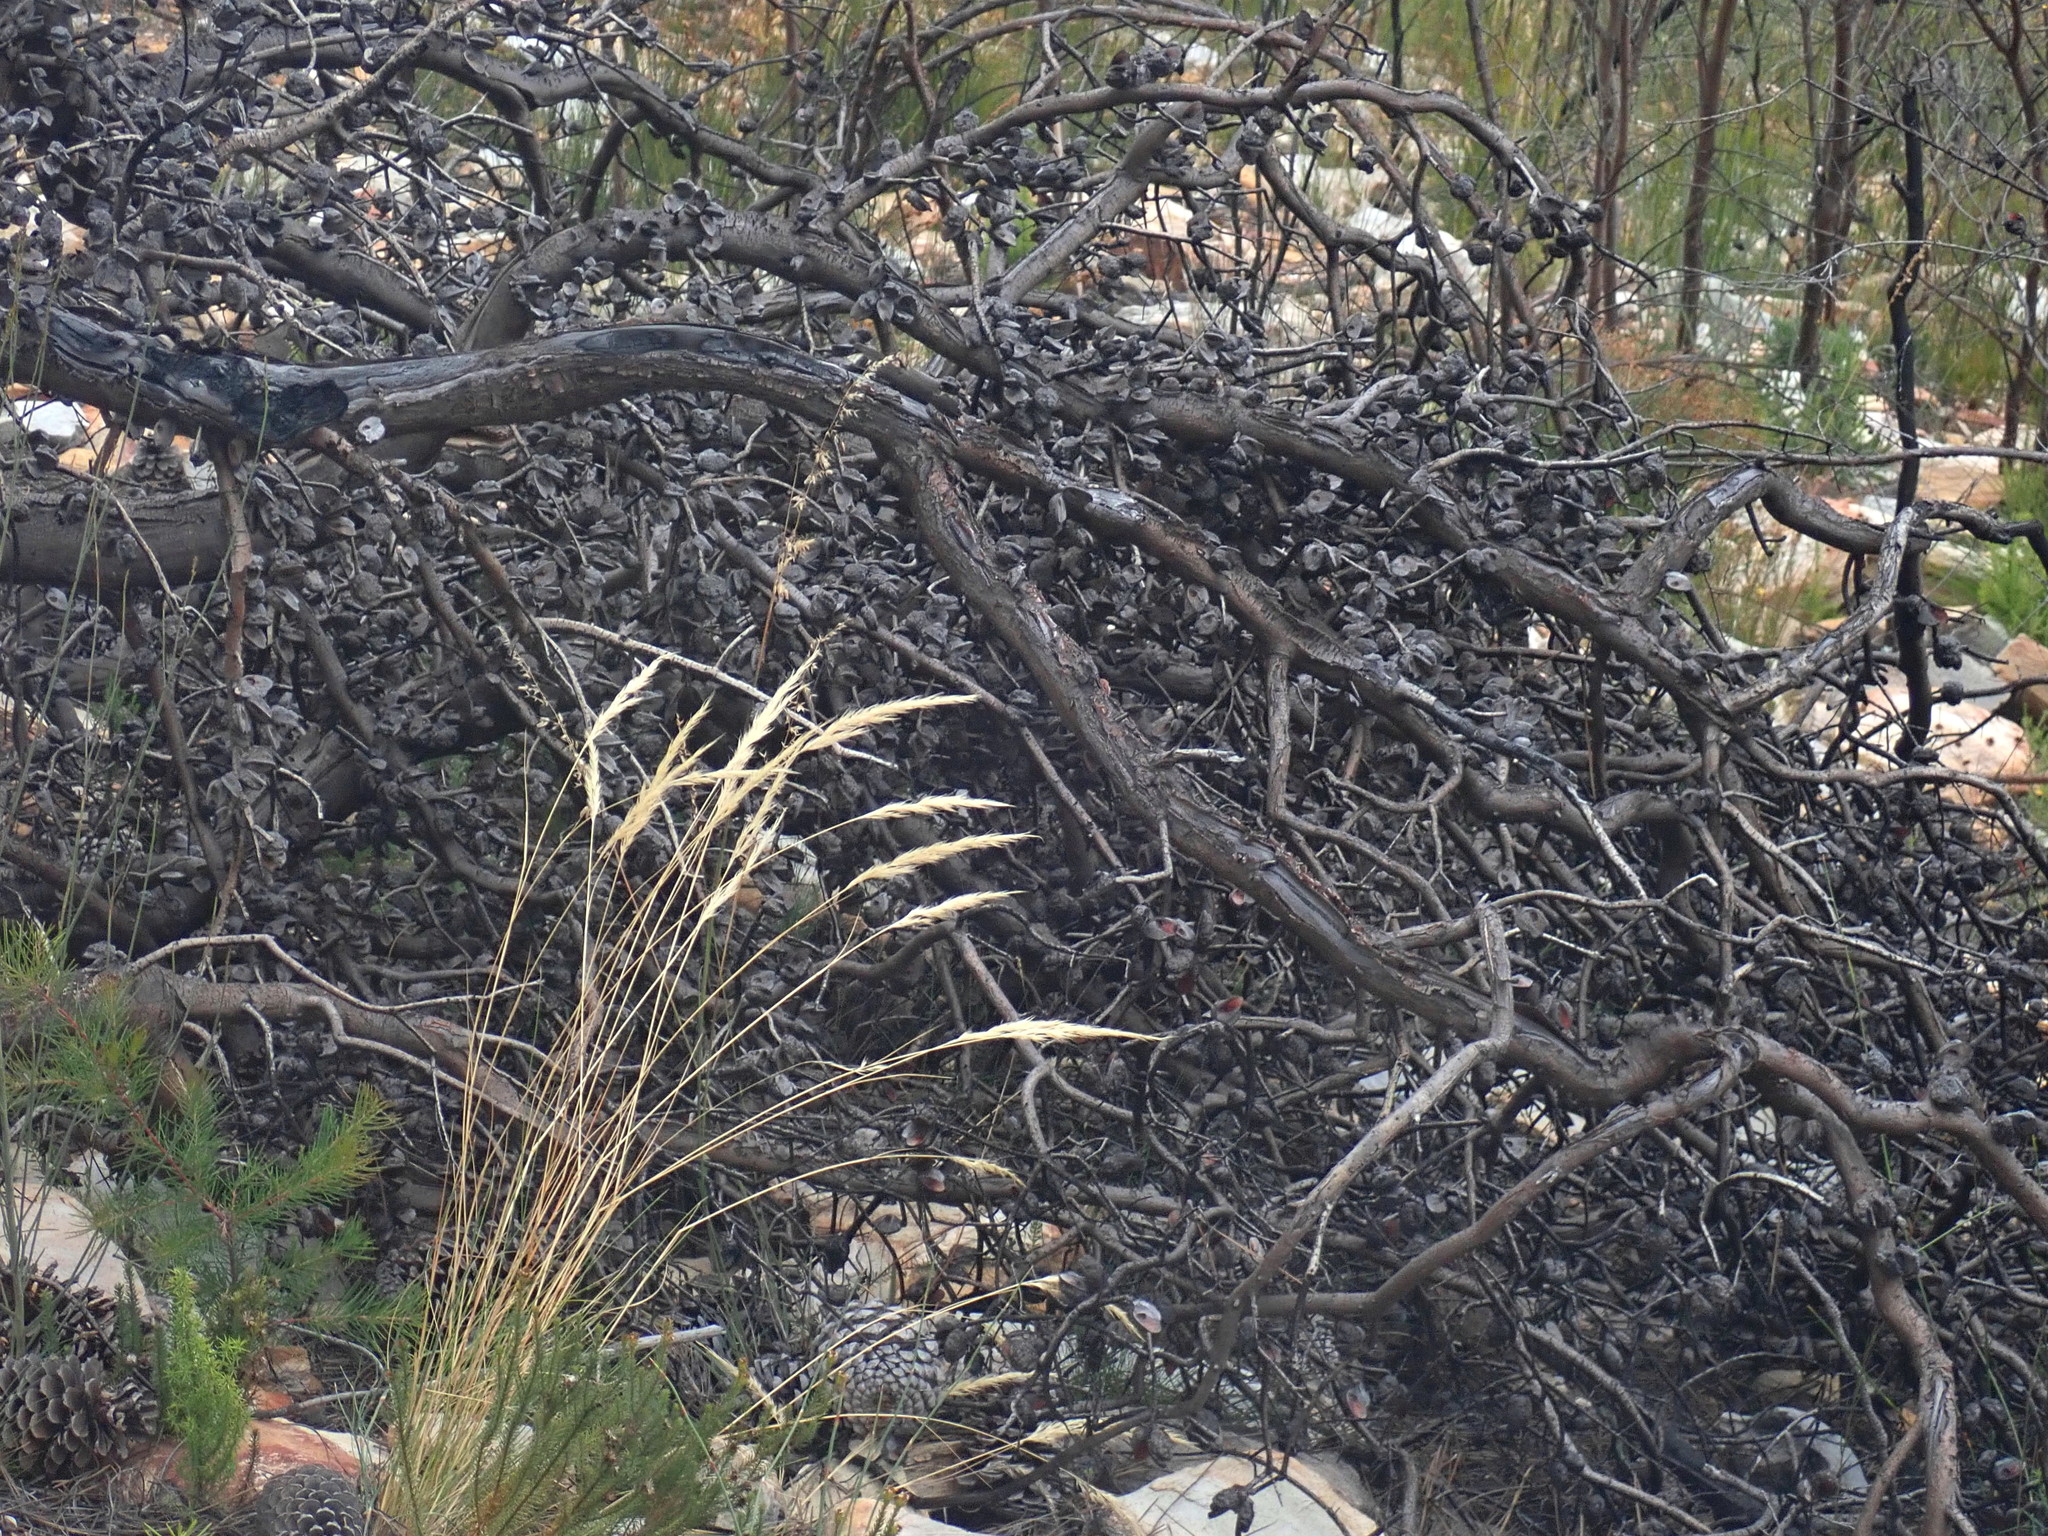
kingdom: Plantae
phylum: Tracheophyta
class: Magnoliopsida
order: Proteales
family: Proteaceae
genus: Hakea
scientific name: Hakea sericea
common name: Needle bush
